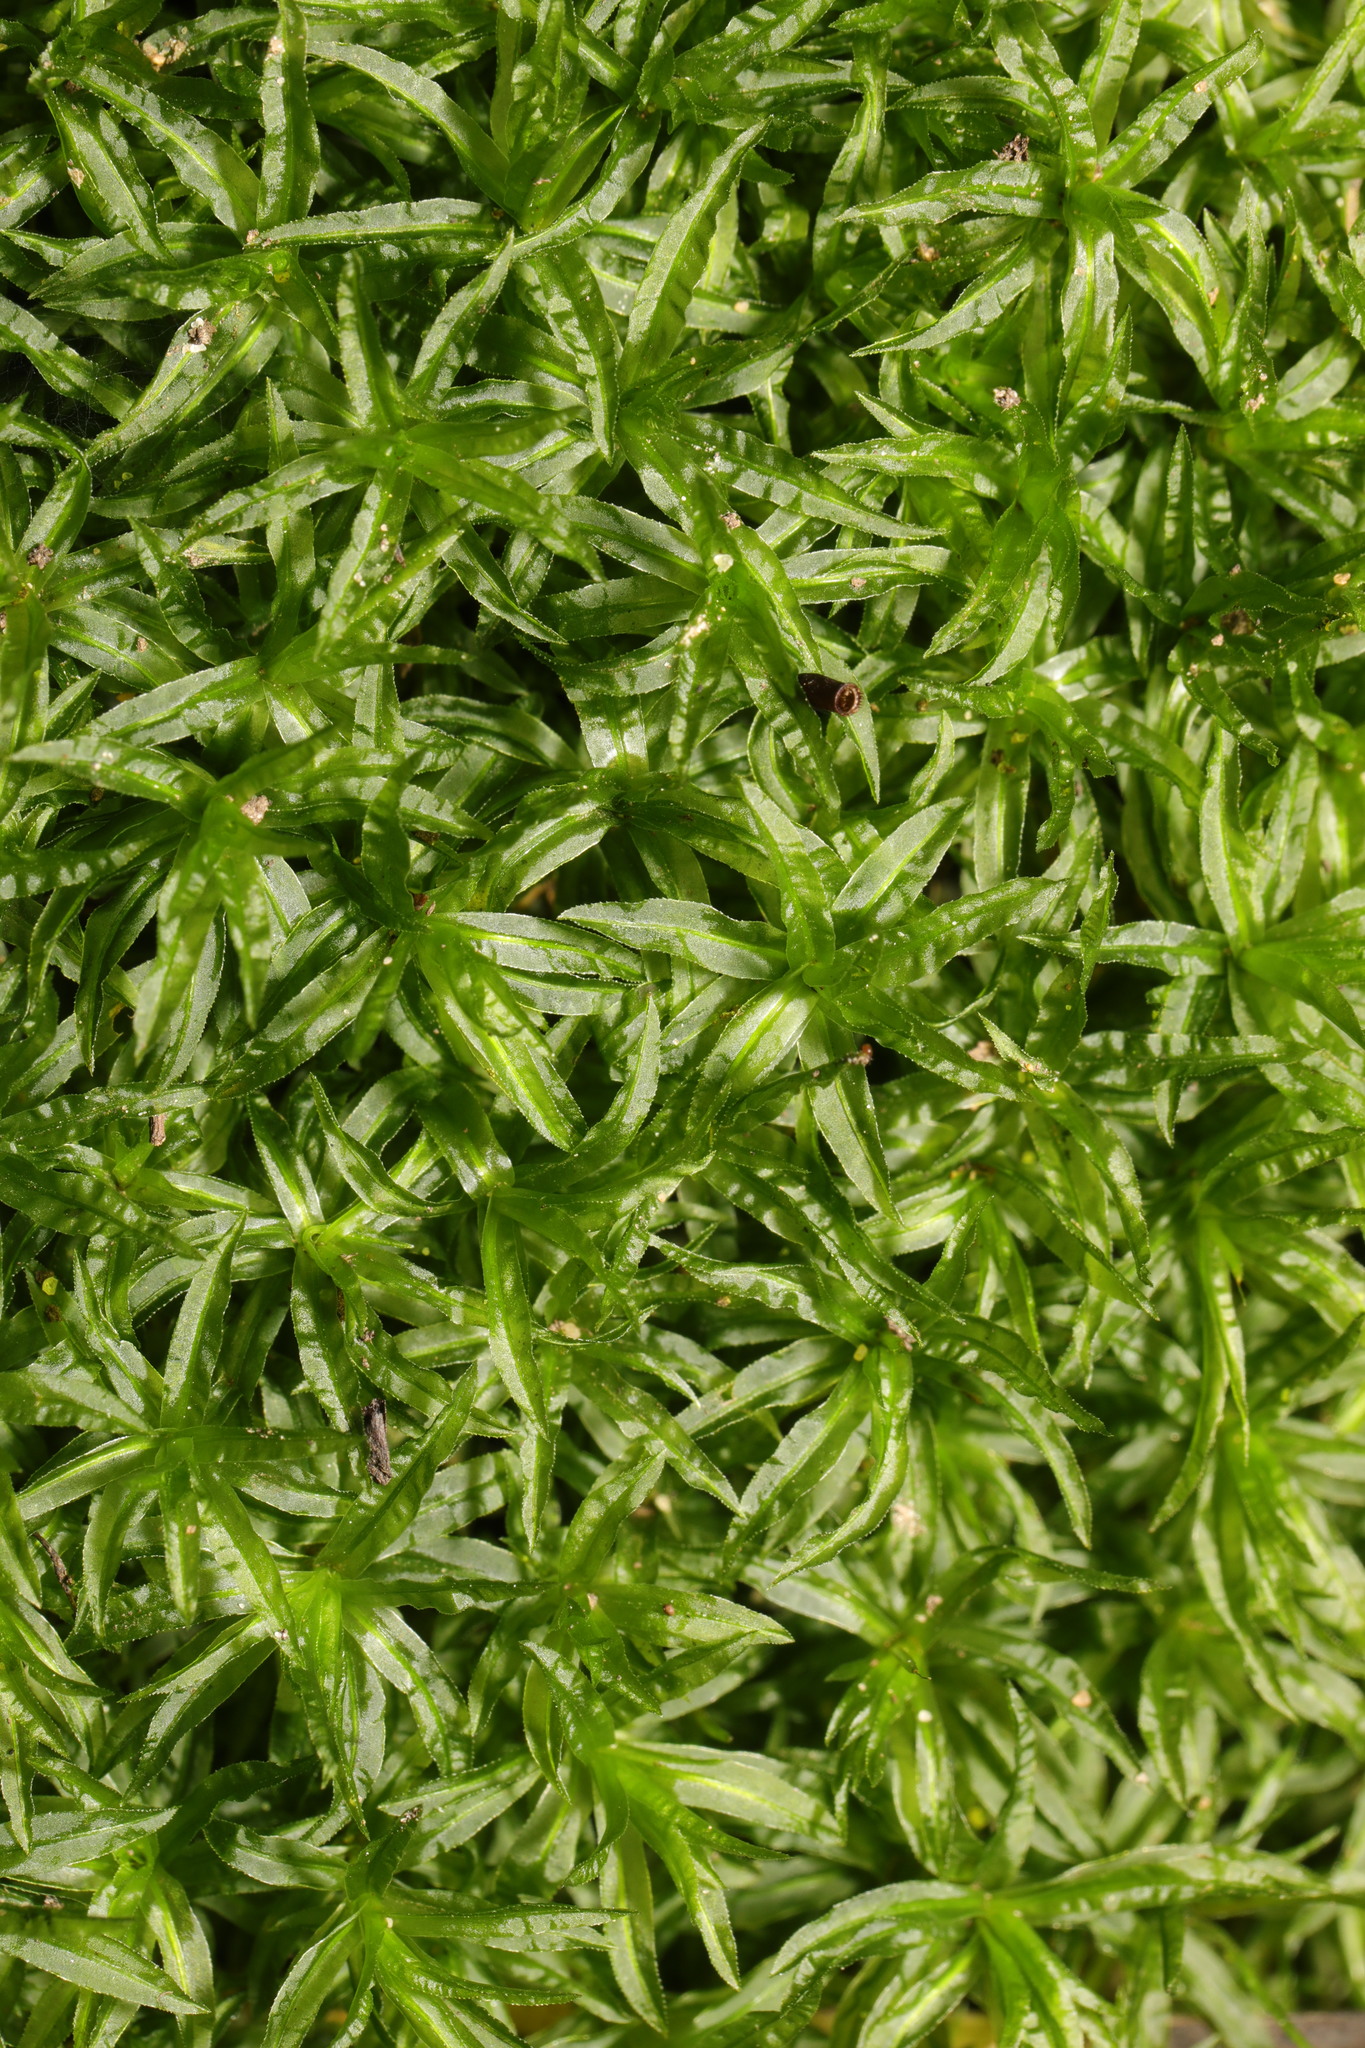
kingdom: Plantae
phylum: Bryophyta
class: Polytrichopsida
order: Polytrichales
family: Polytrichaceae
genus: Atrichum
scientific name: Atrichum undulatum
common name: Common smoothcap
